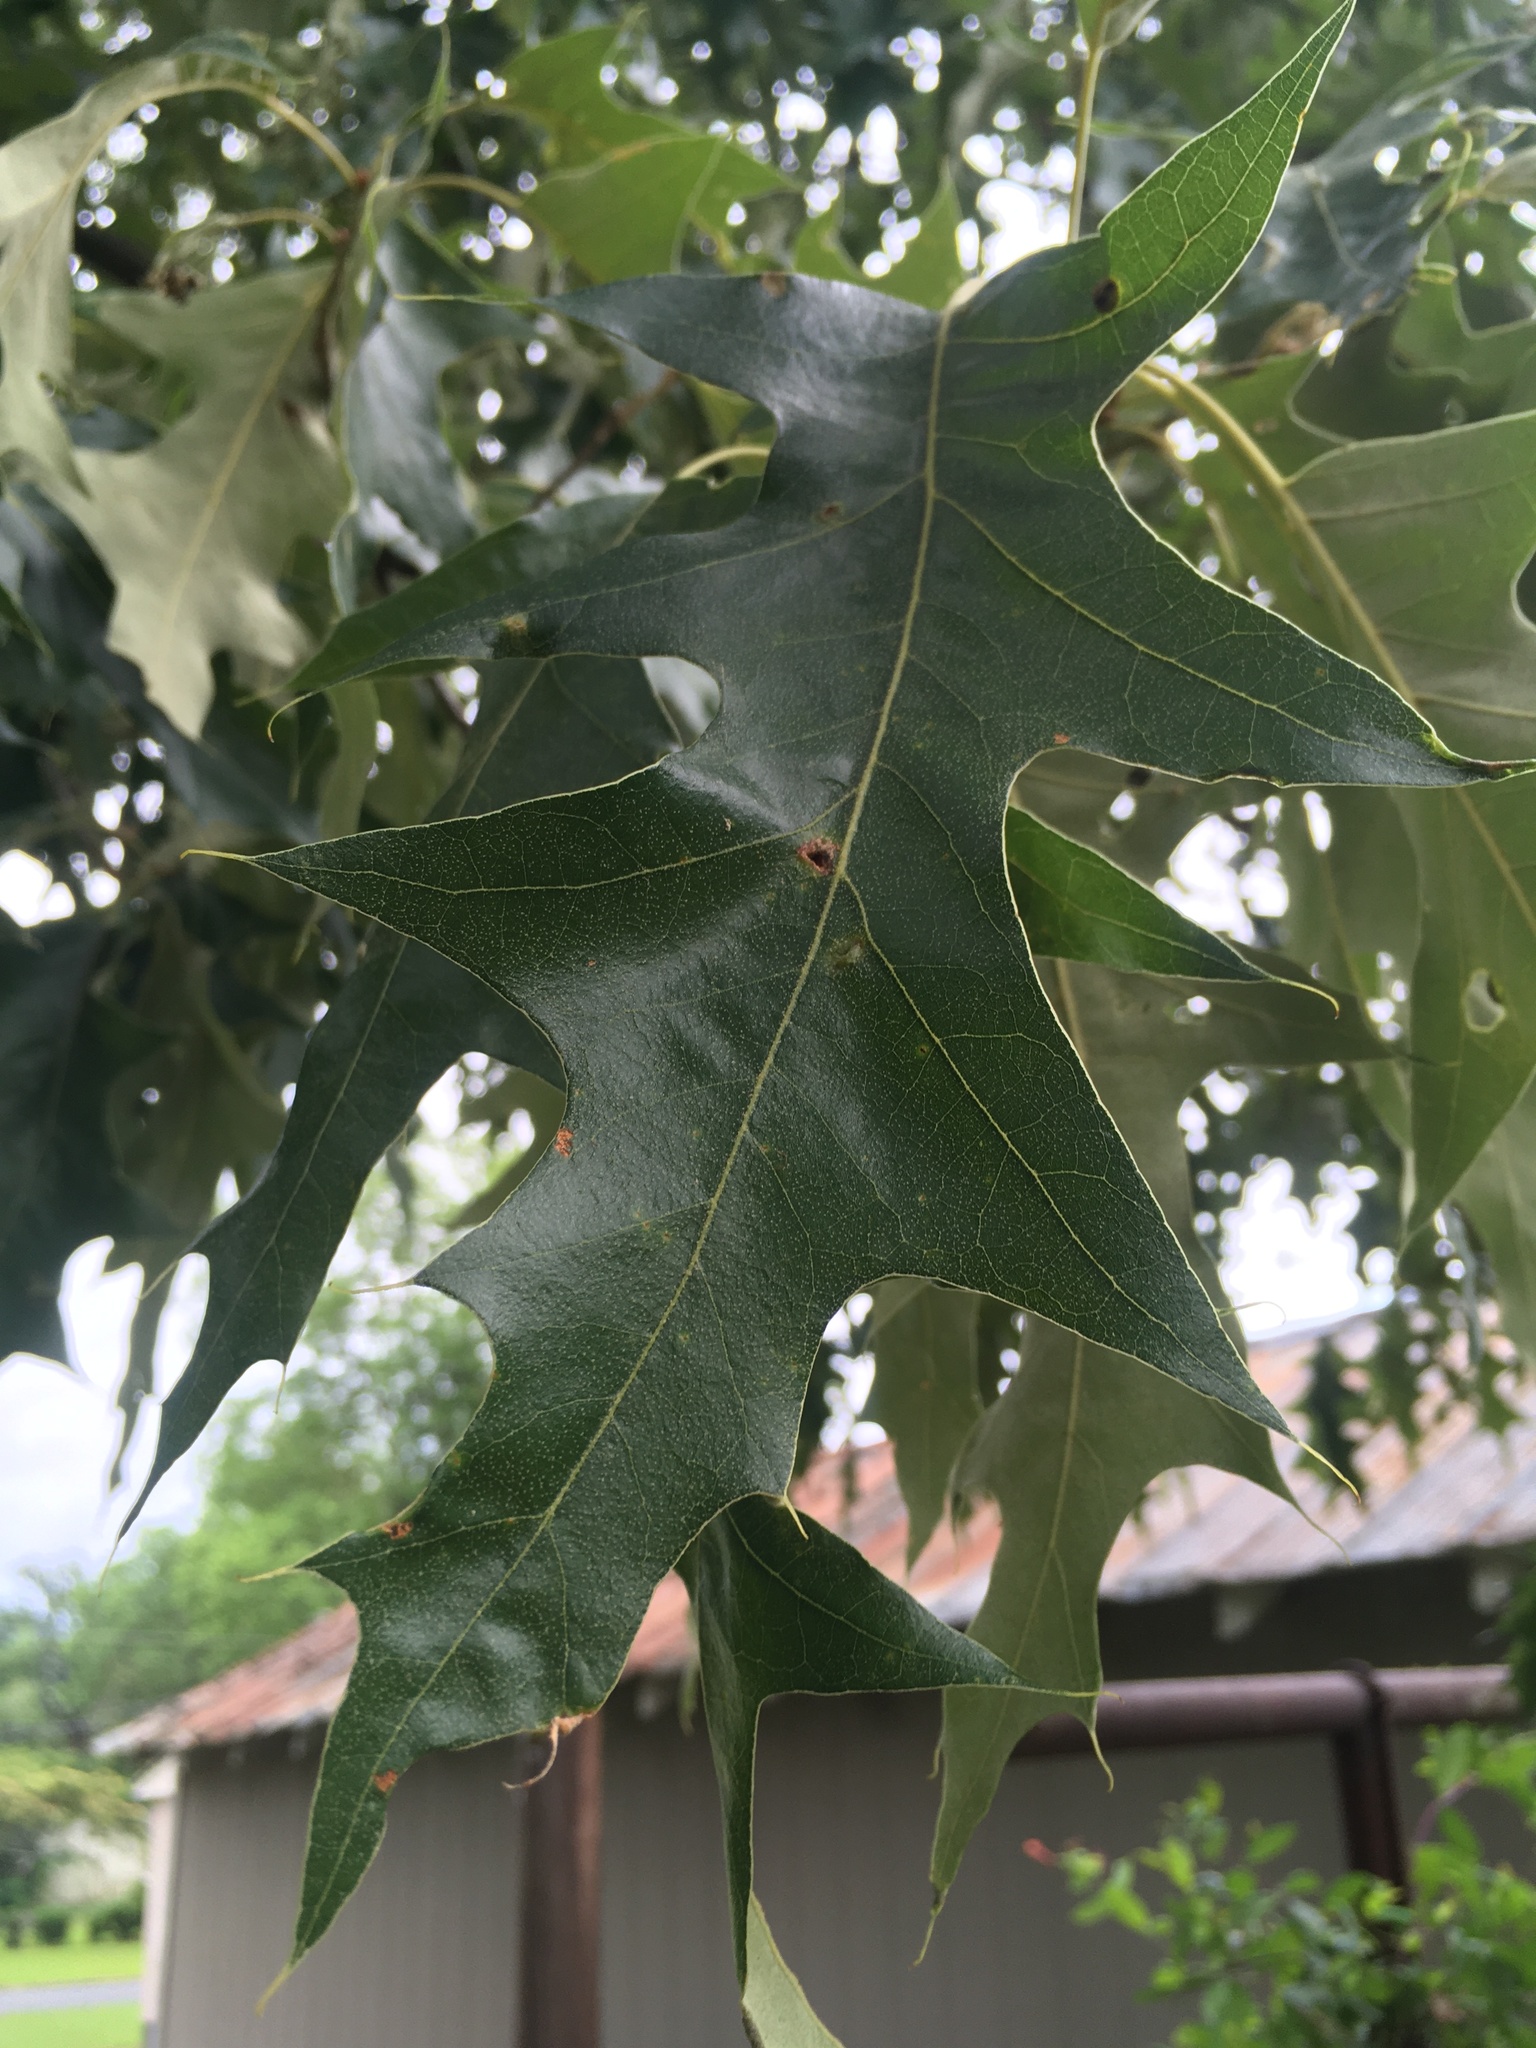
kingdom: Plantae
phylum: Tracheophyta
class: Magnoliopsida
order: Fagales
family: Fagaceae
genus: Quercus
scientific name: Quercus falcata
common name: Southern red oak
